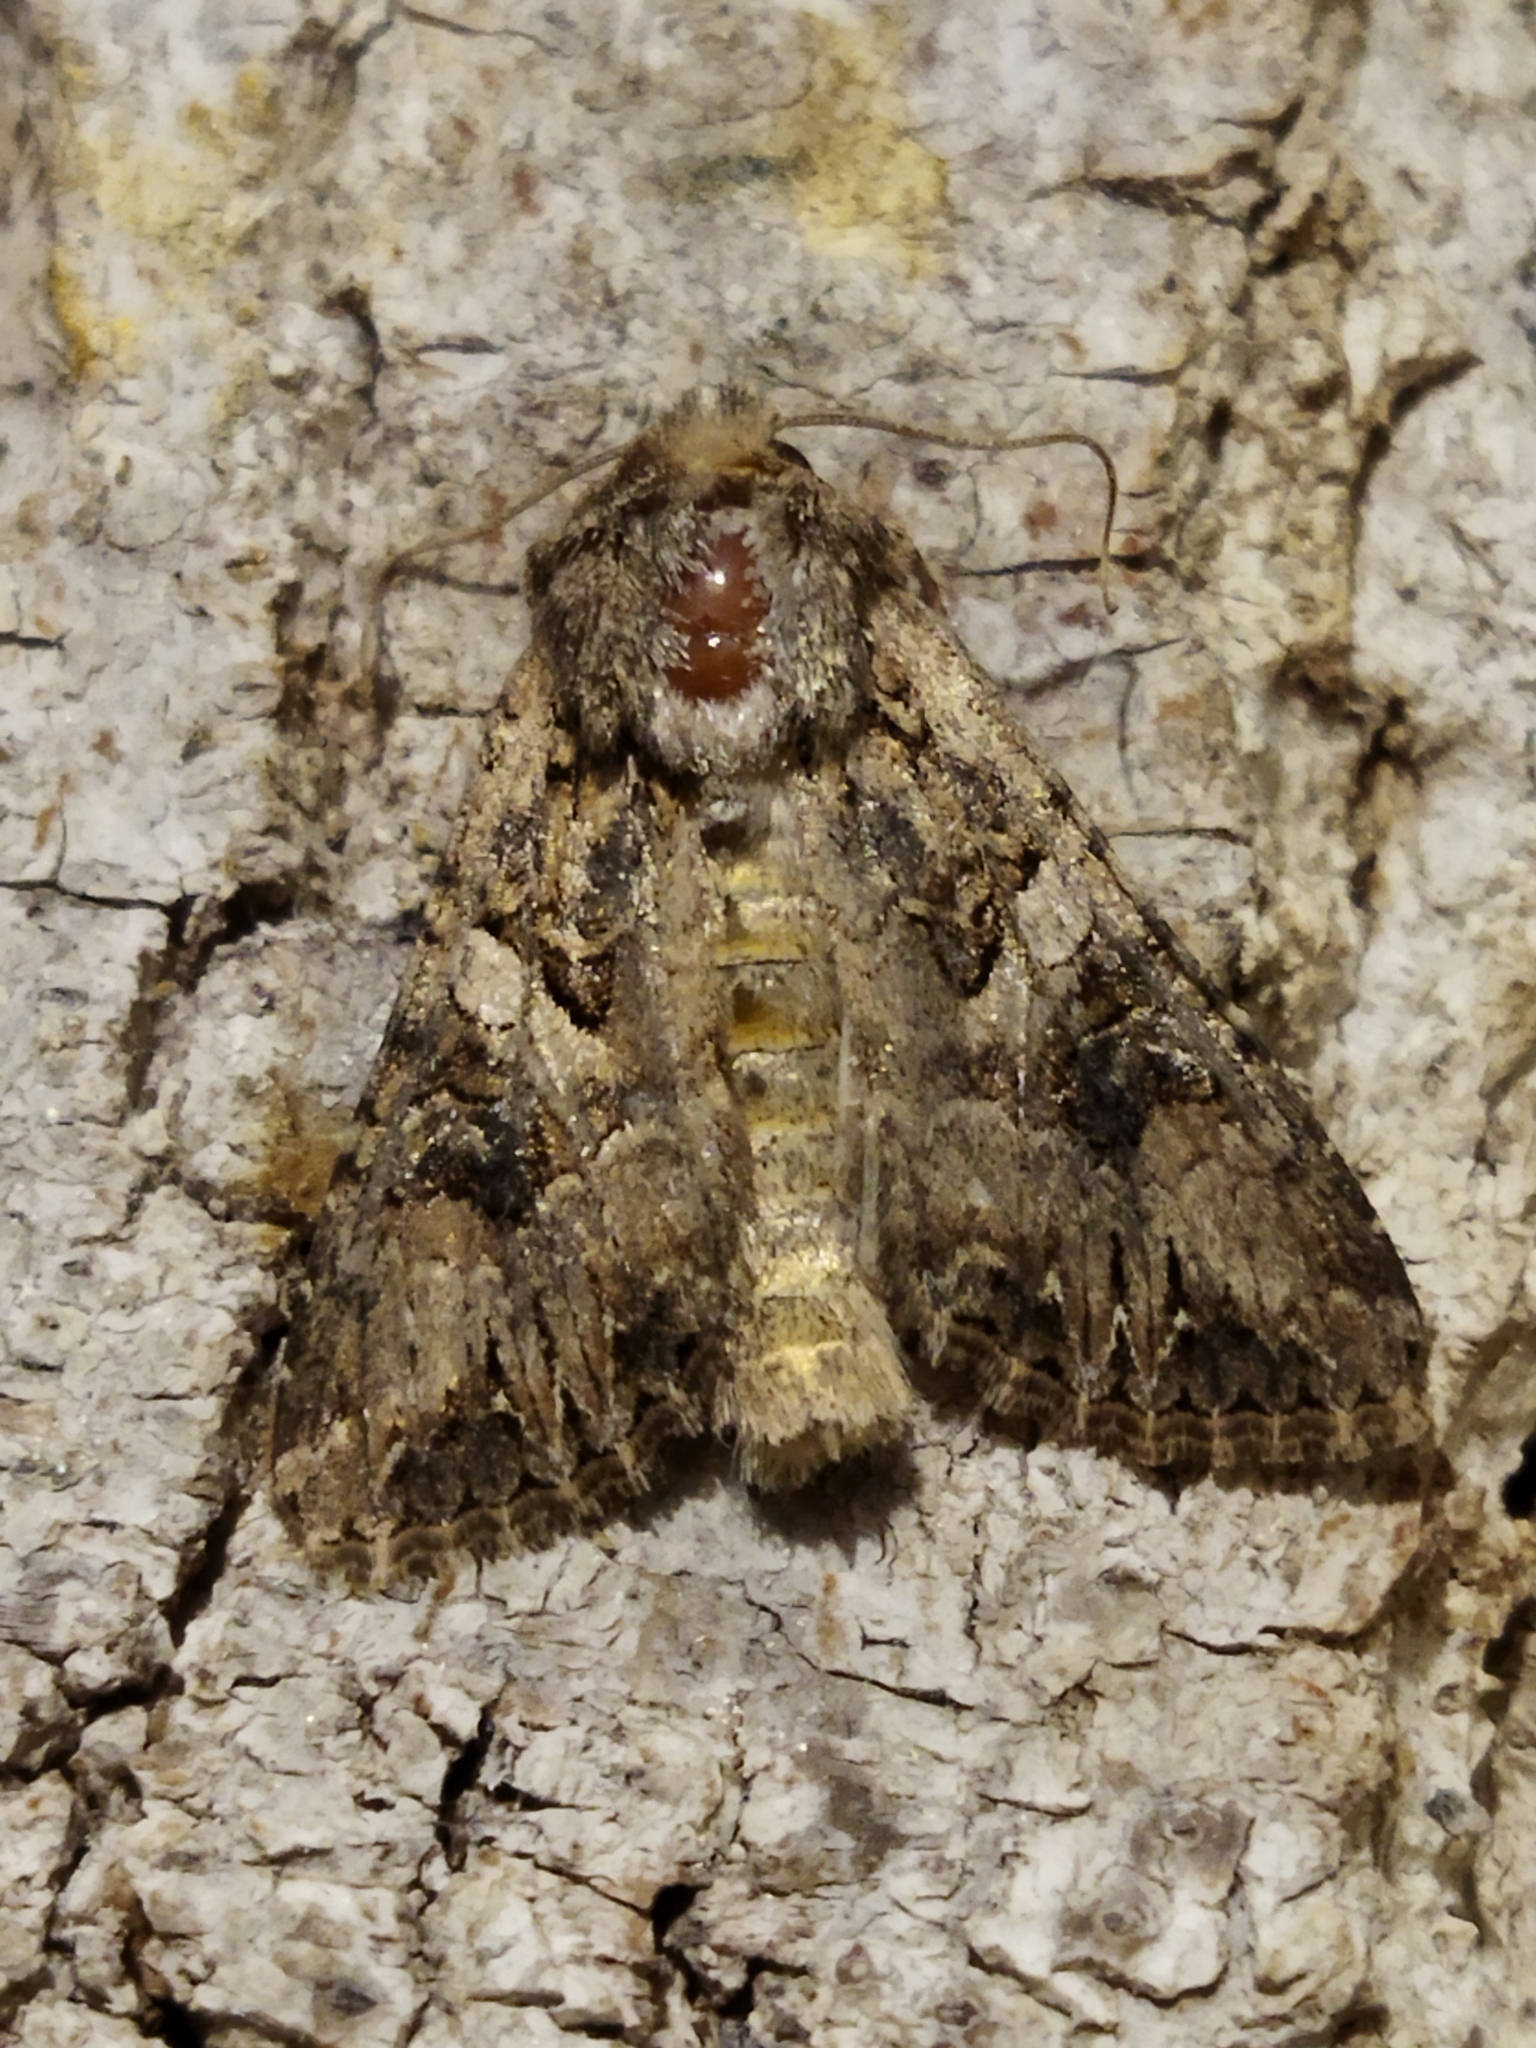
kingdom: Animalia
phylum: Arthropoda
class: Insecta
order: Lepidoptera
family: Noctuidae
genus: Anarta
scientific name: Anarta trifolii
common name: Clover cutworm moth
